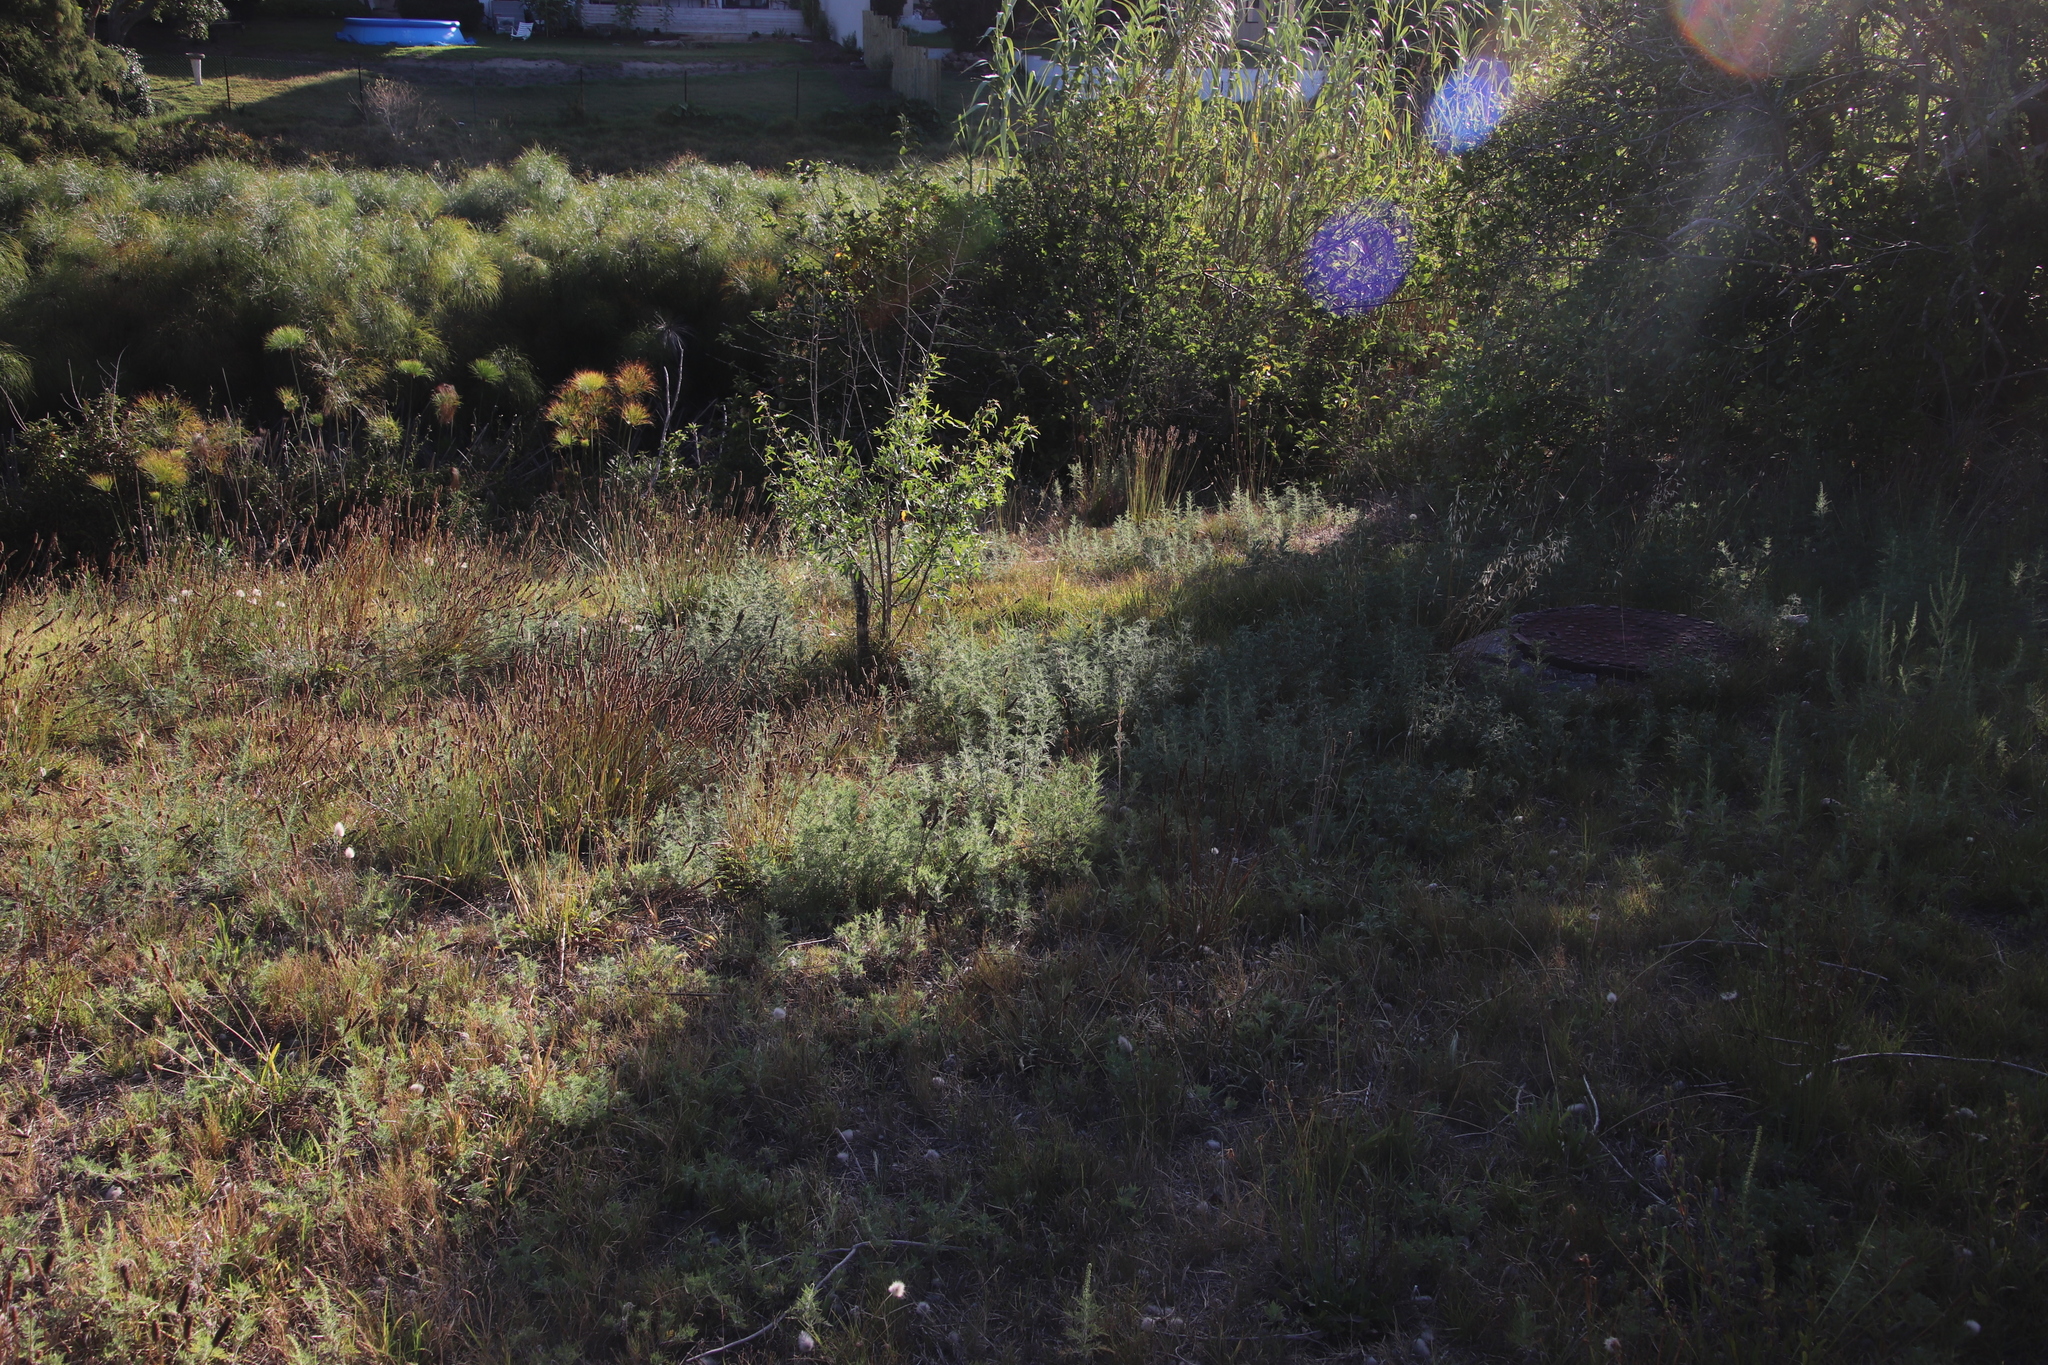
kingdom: Plantae
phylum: Tracheophyta
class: Magnoliopsida
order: Lamiales
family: Plantaginaceae
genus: Plantago
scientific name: Plantago lanceolata
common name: Ribwort plantain
